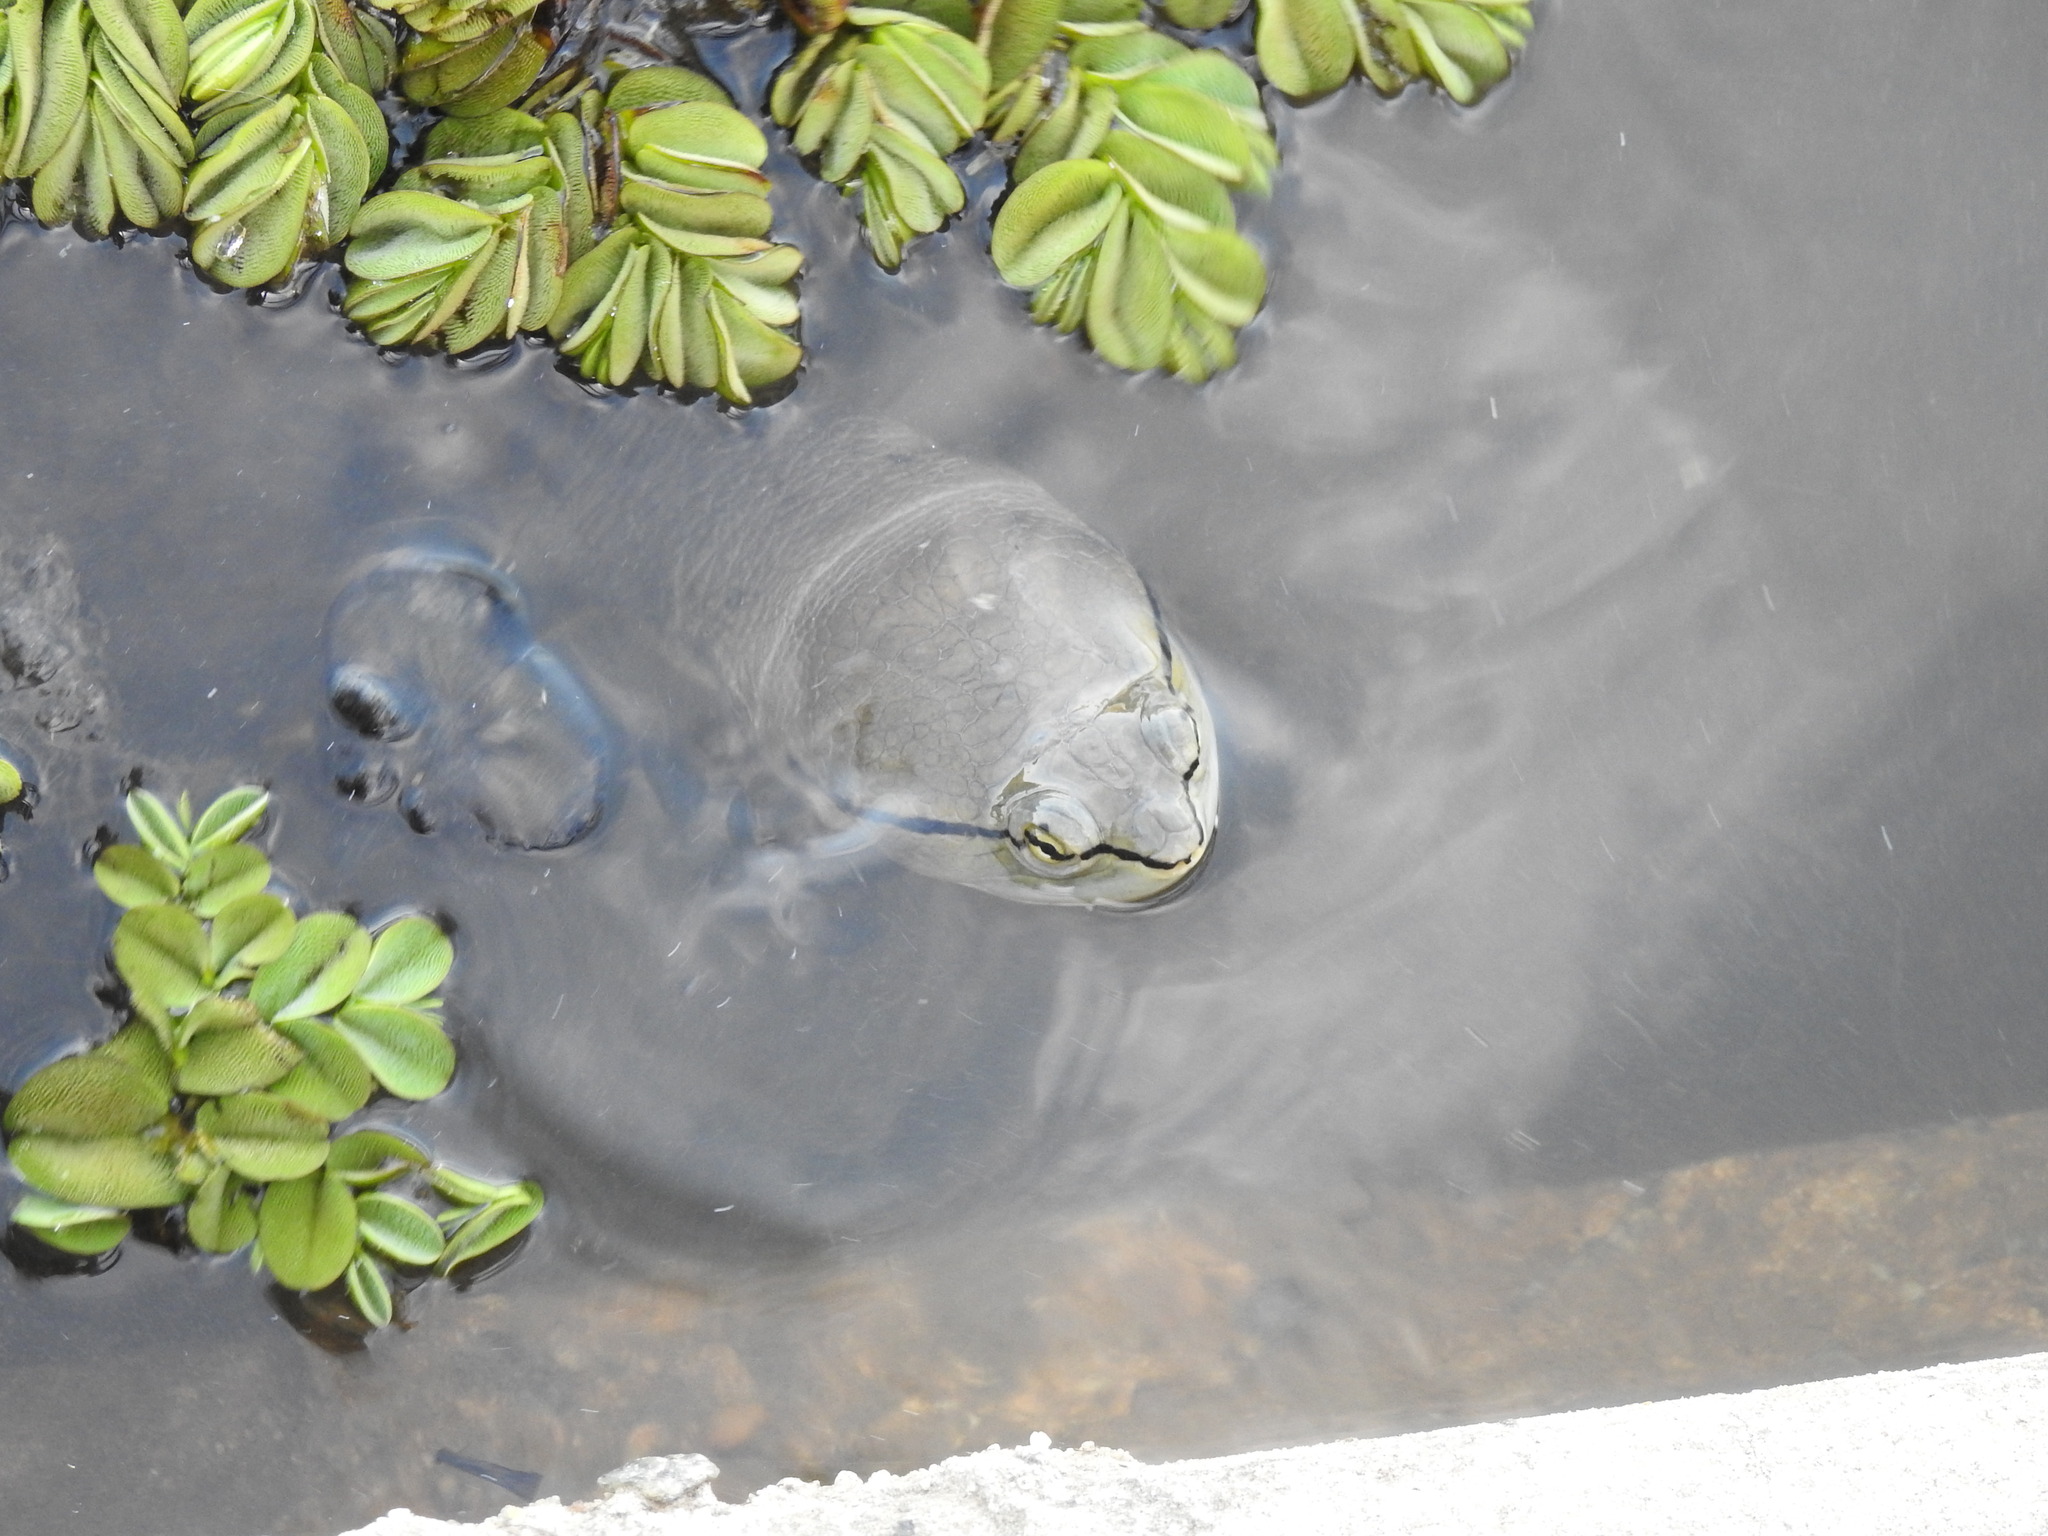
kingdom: Animalia
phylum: Chordata
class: Testudines
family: Chelidae
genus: Phrynops
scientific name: Phrynops hilarii
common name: Side-necked turtle of saint hillaire
